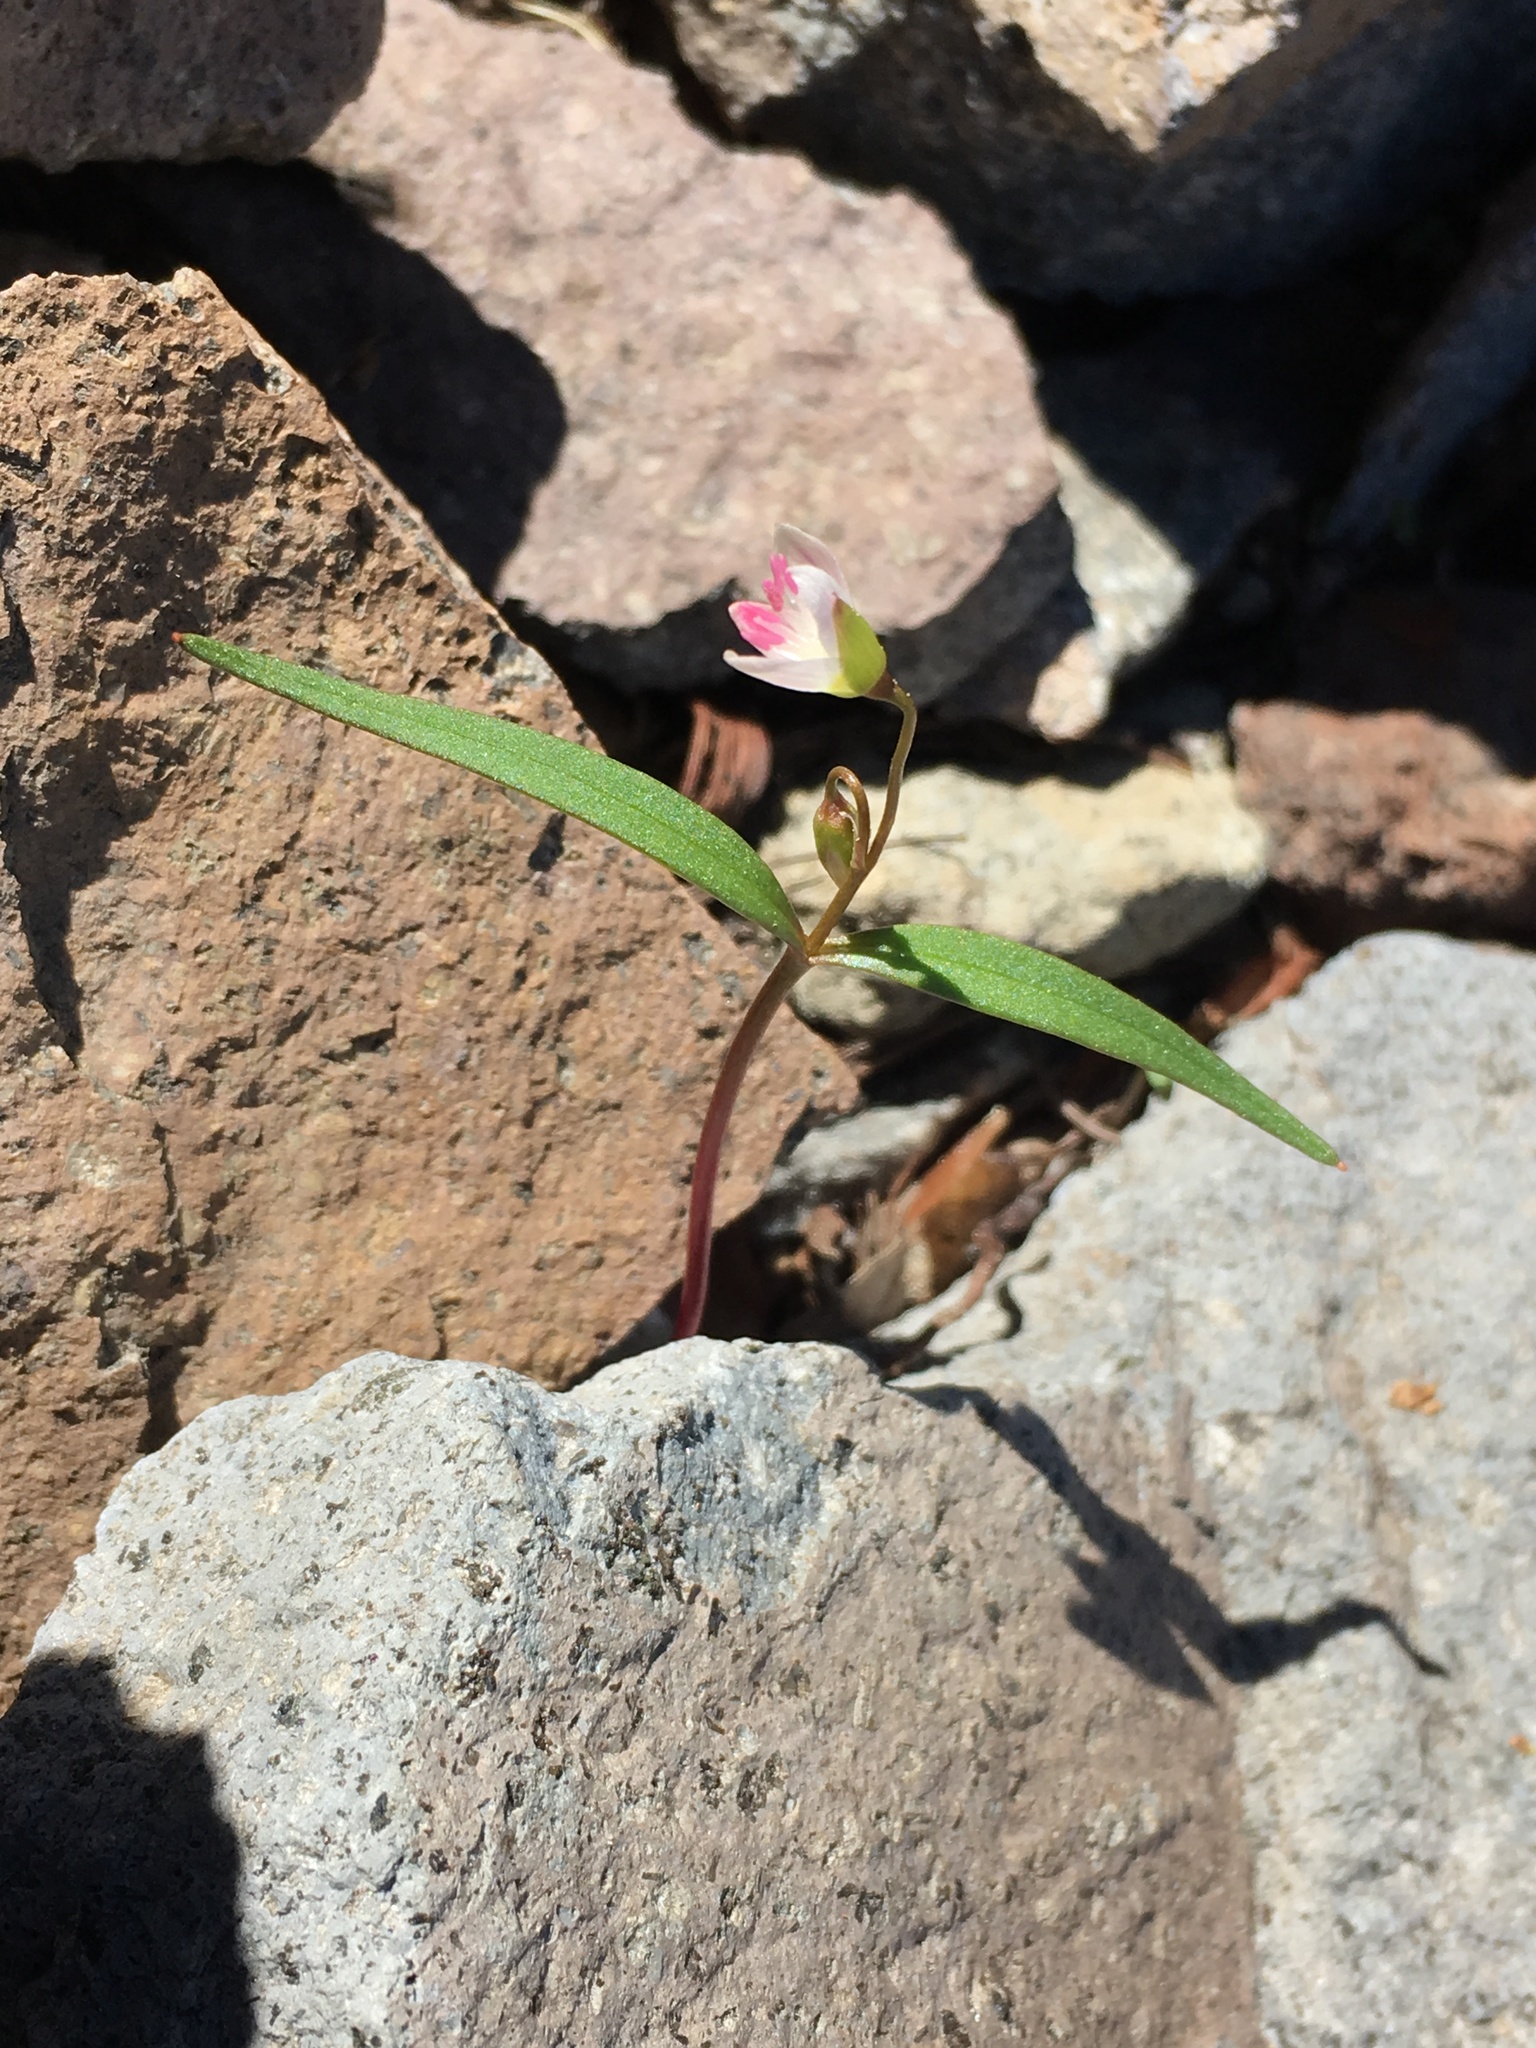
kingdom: Plantae
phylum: Tracheophyta
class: Magnoliopsida
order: Caryophyllales
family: Montiaceae
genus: Claytonia
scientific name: Claytonia lanceolata
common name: Western spring-beauty
